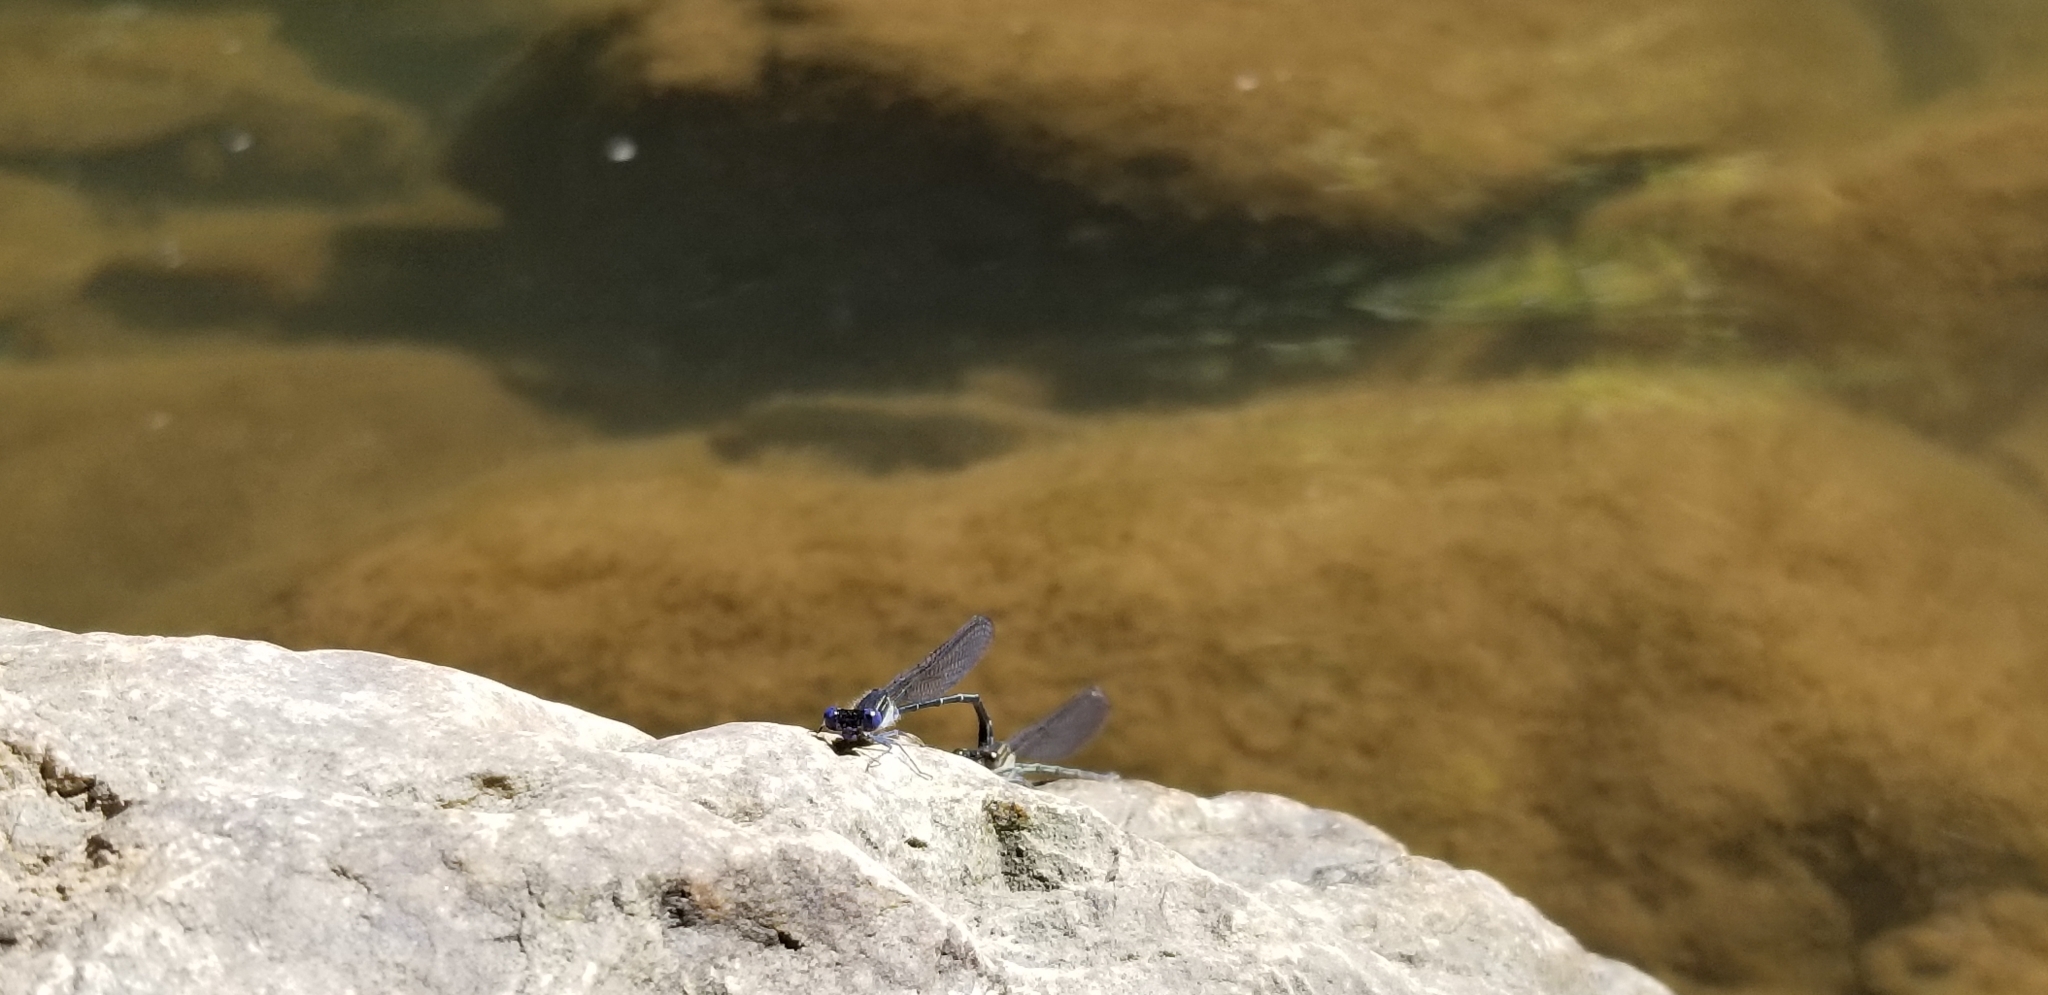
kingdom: Animalia
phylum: Arthropoda
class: Insecta
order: Odonata
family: Coenagrionidae
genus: Argia
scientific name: Argia translata
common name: Dusky dancer
